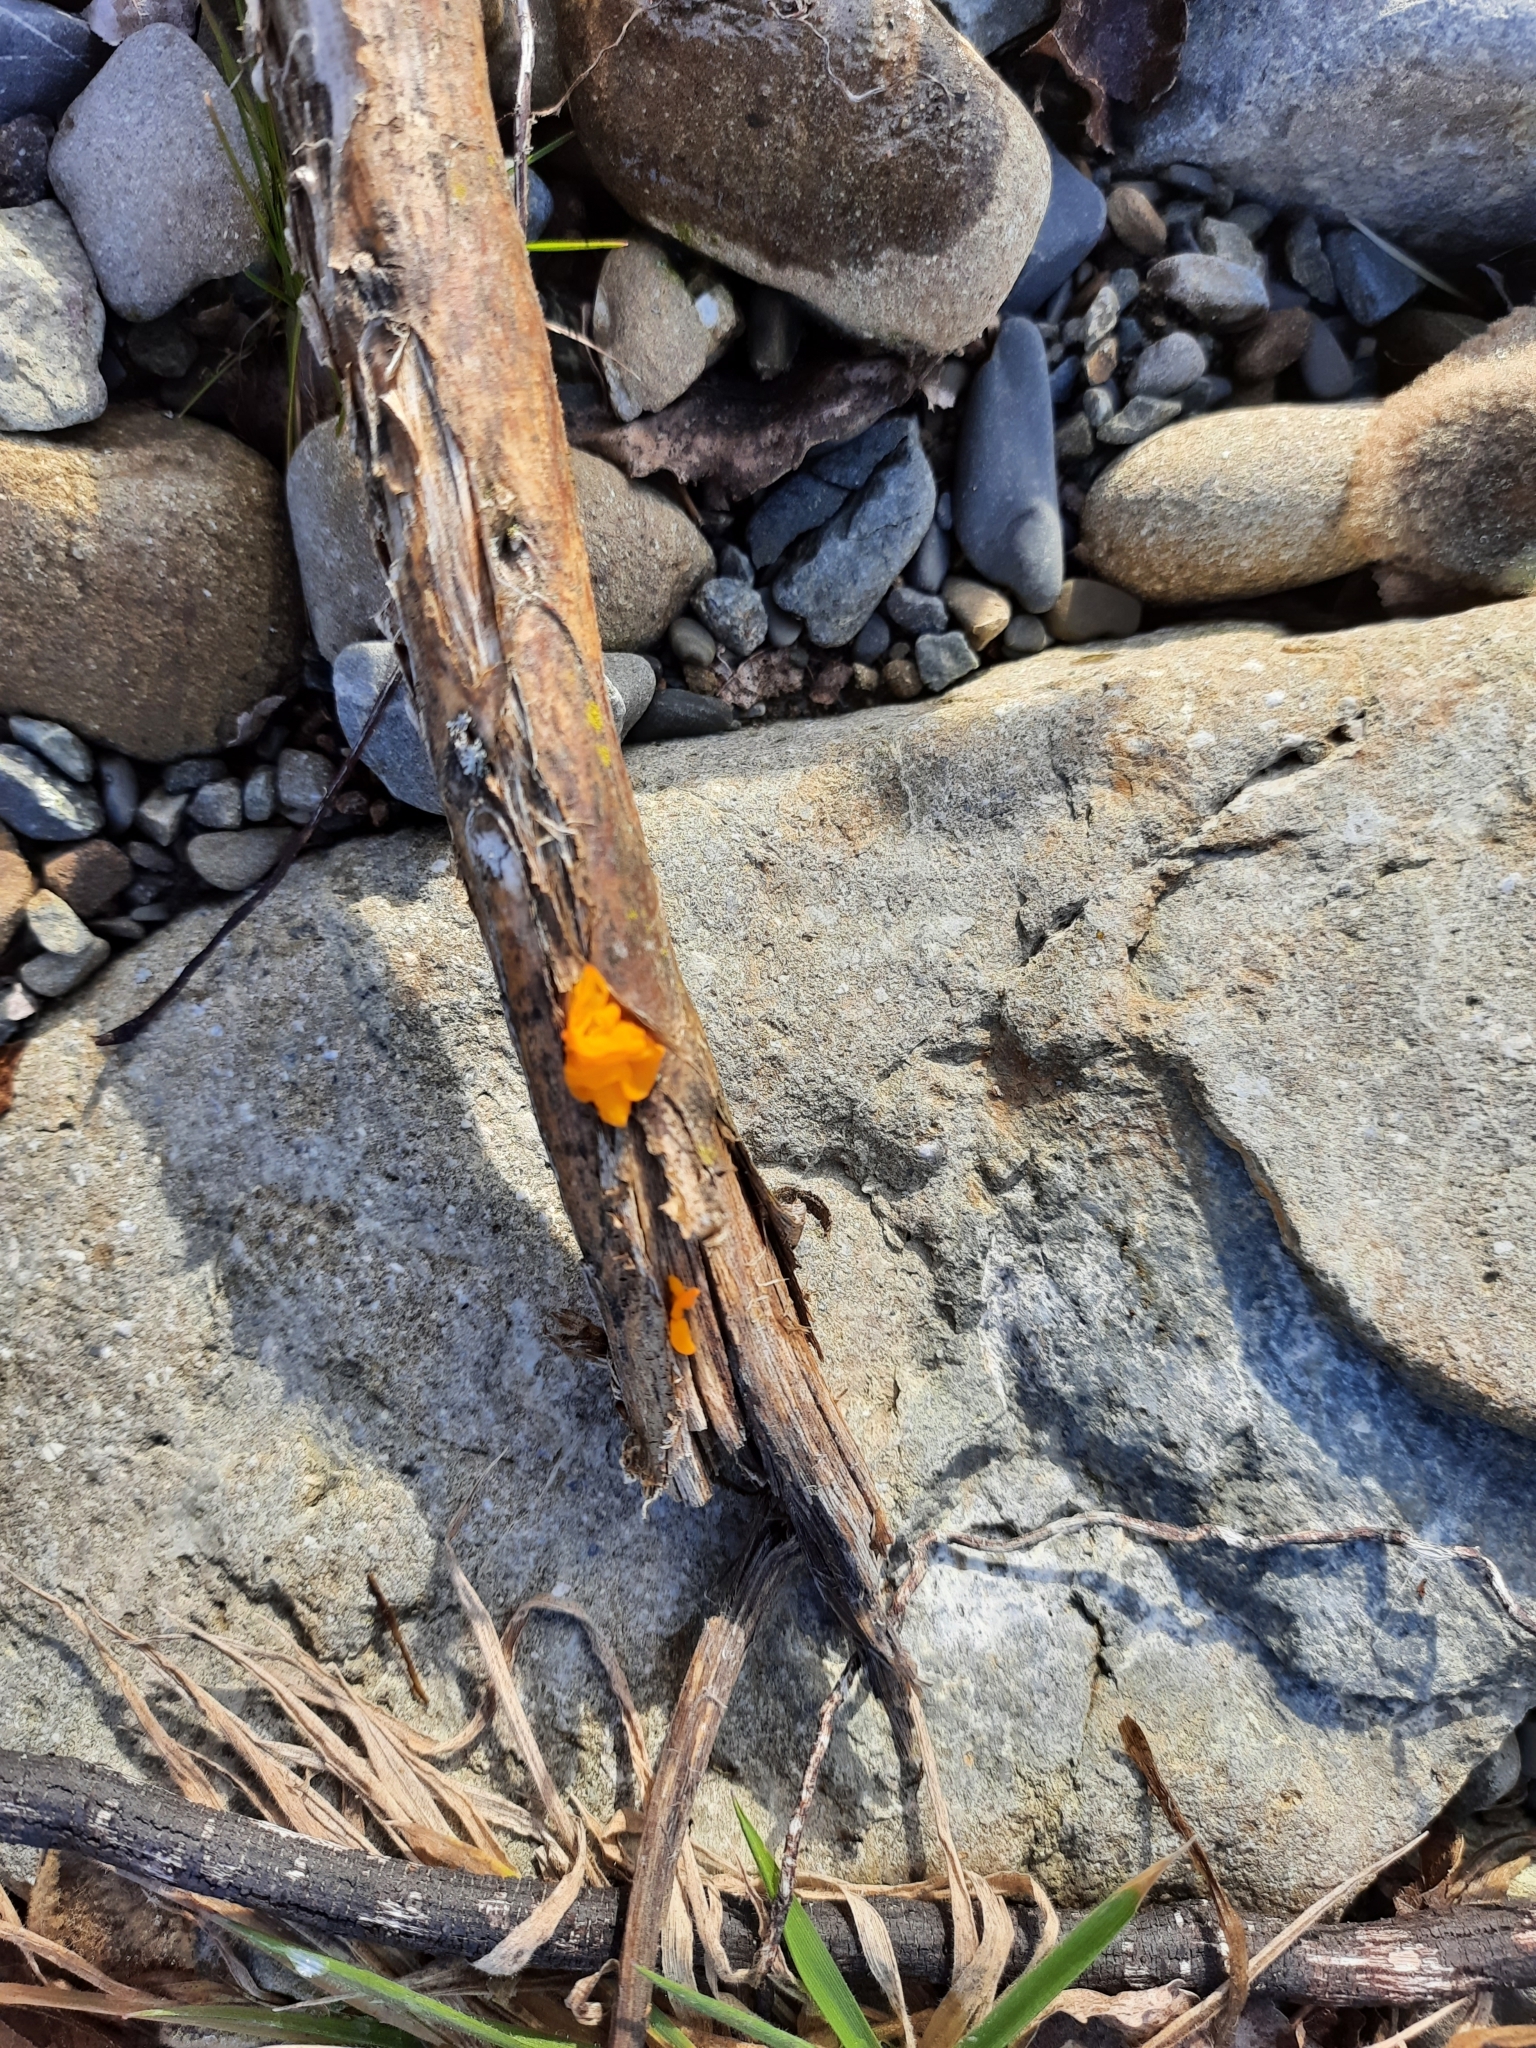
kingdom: Fungi
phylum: Basidiomycota
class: Tremellomycetes
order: Tremellales
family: Tremellaceae
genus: Tremella
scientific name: Tremella mesenterica
